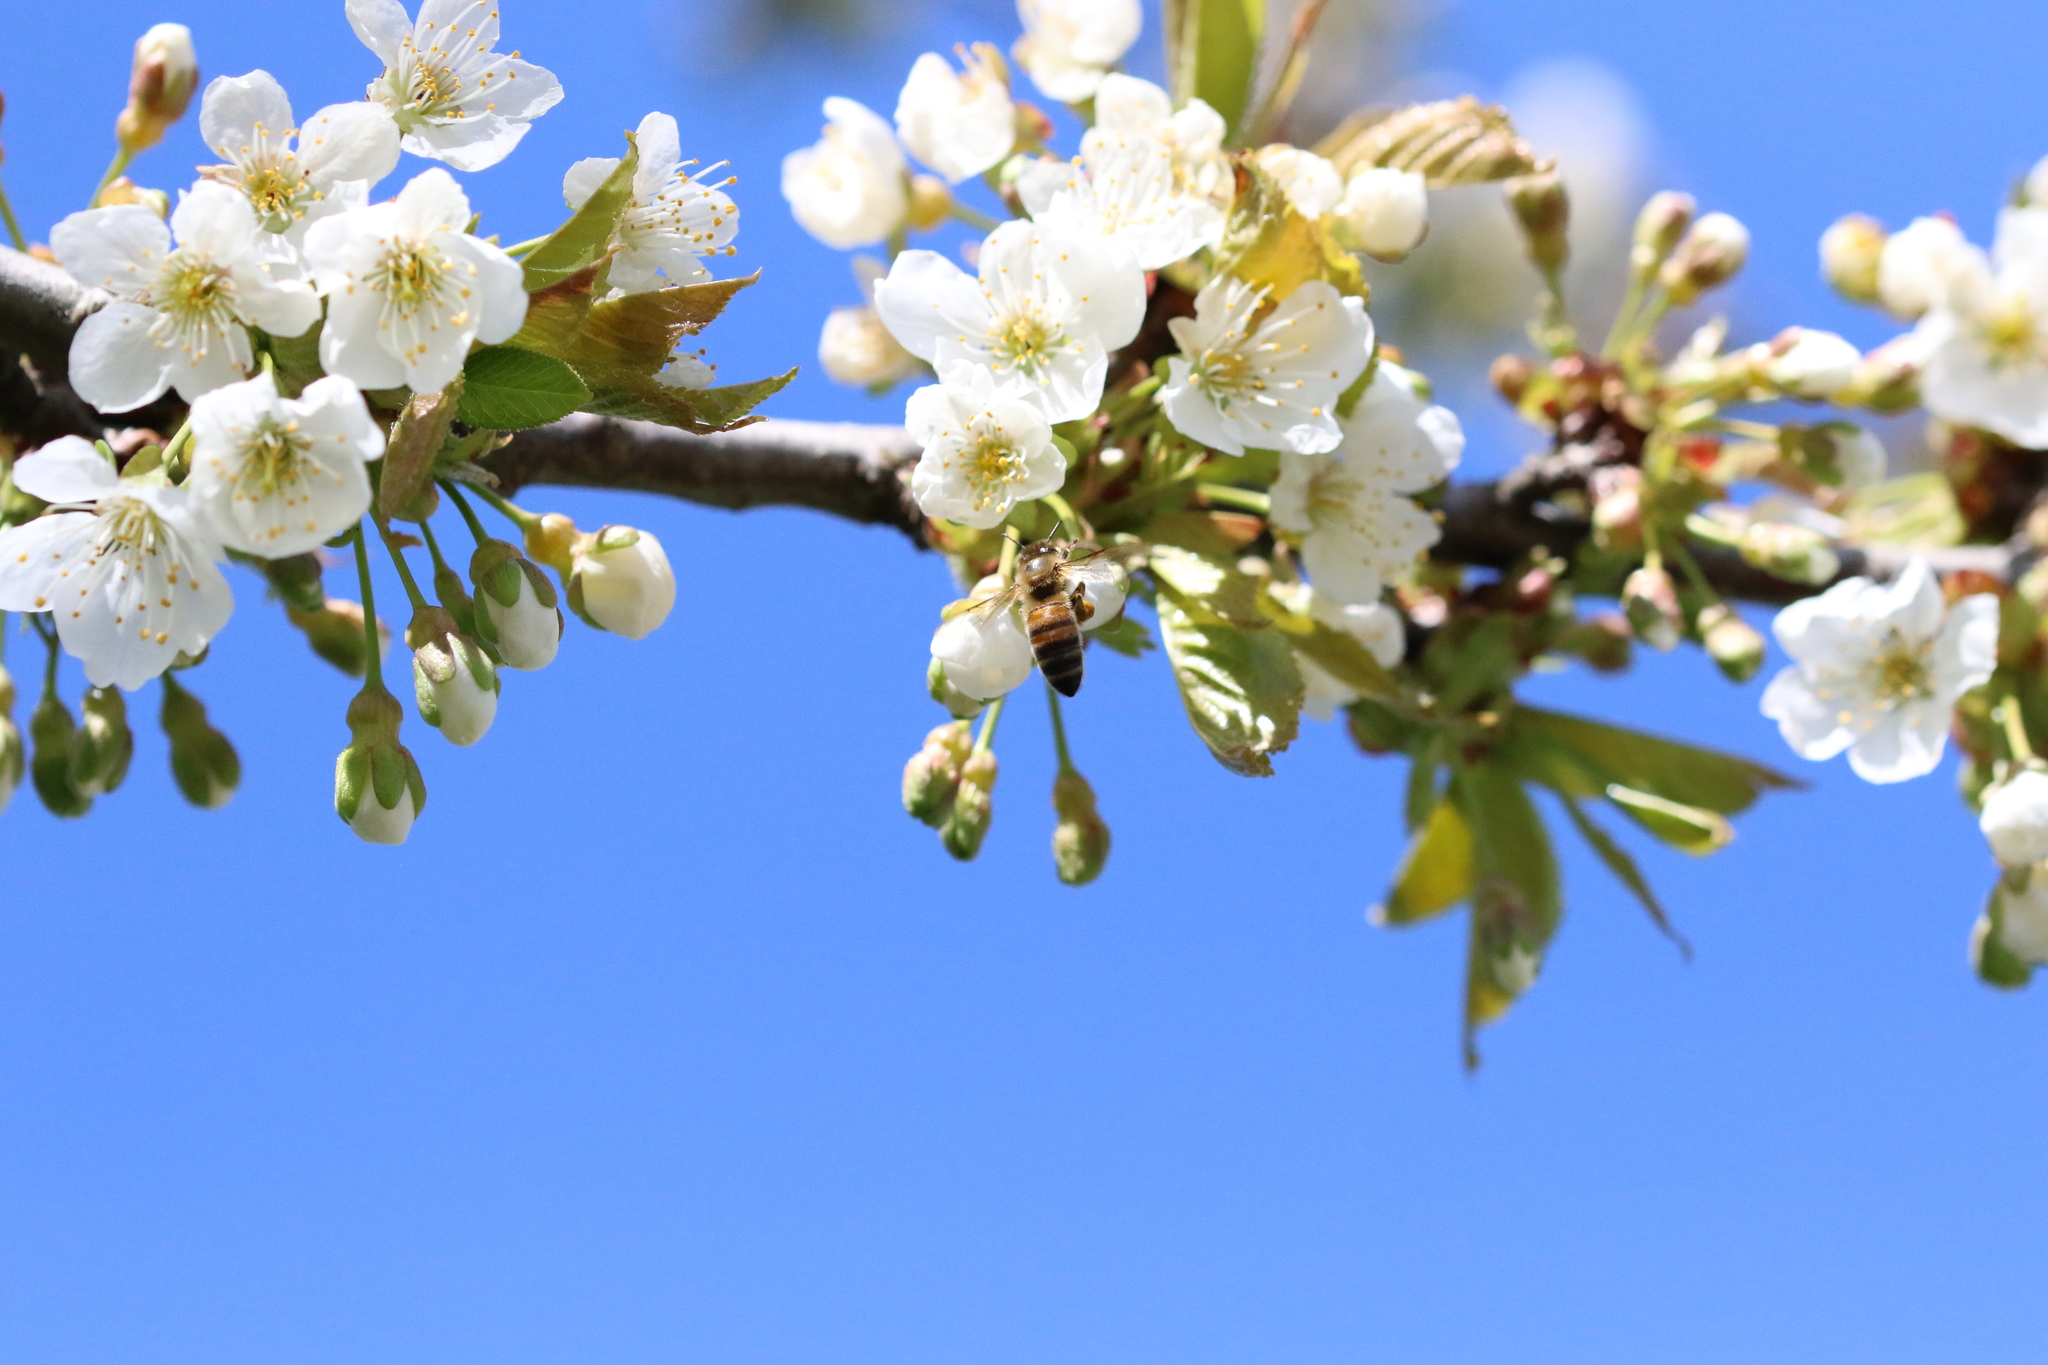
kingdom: Animalia
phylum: Arthropoda
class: Insecta
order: Hymenoptera
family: Apidae
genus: Apis
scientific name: Apis mellifera
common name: Honey bee
